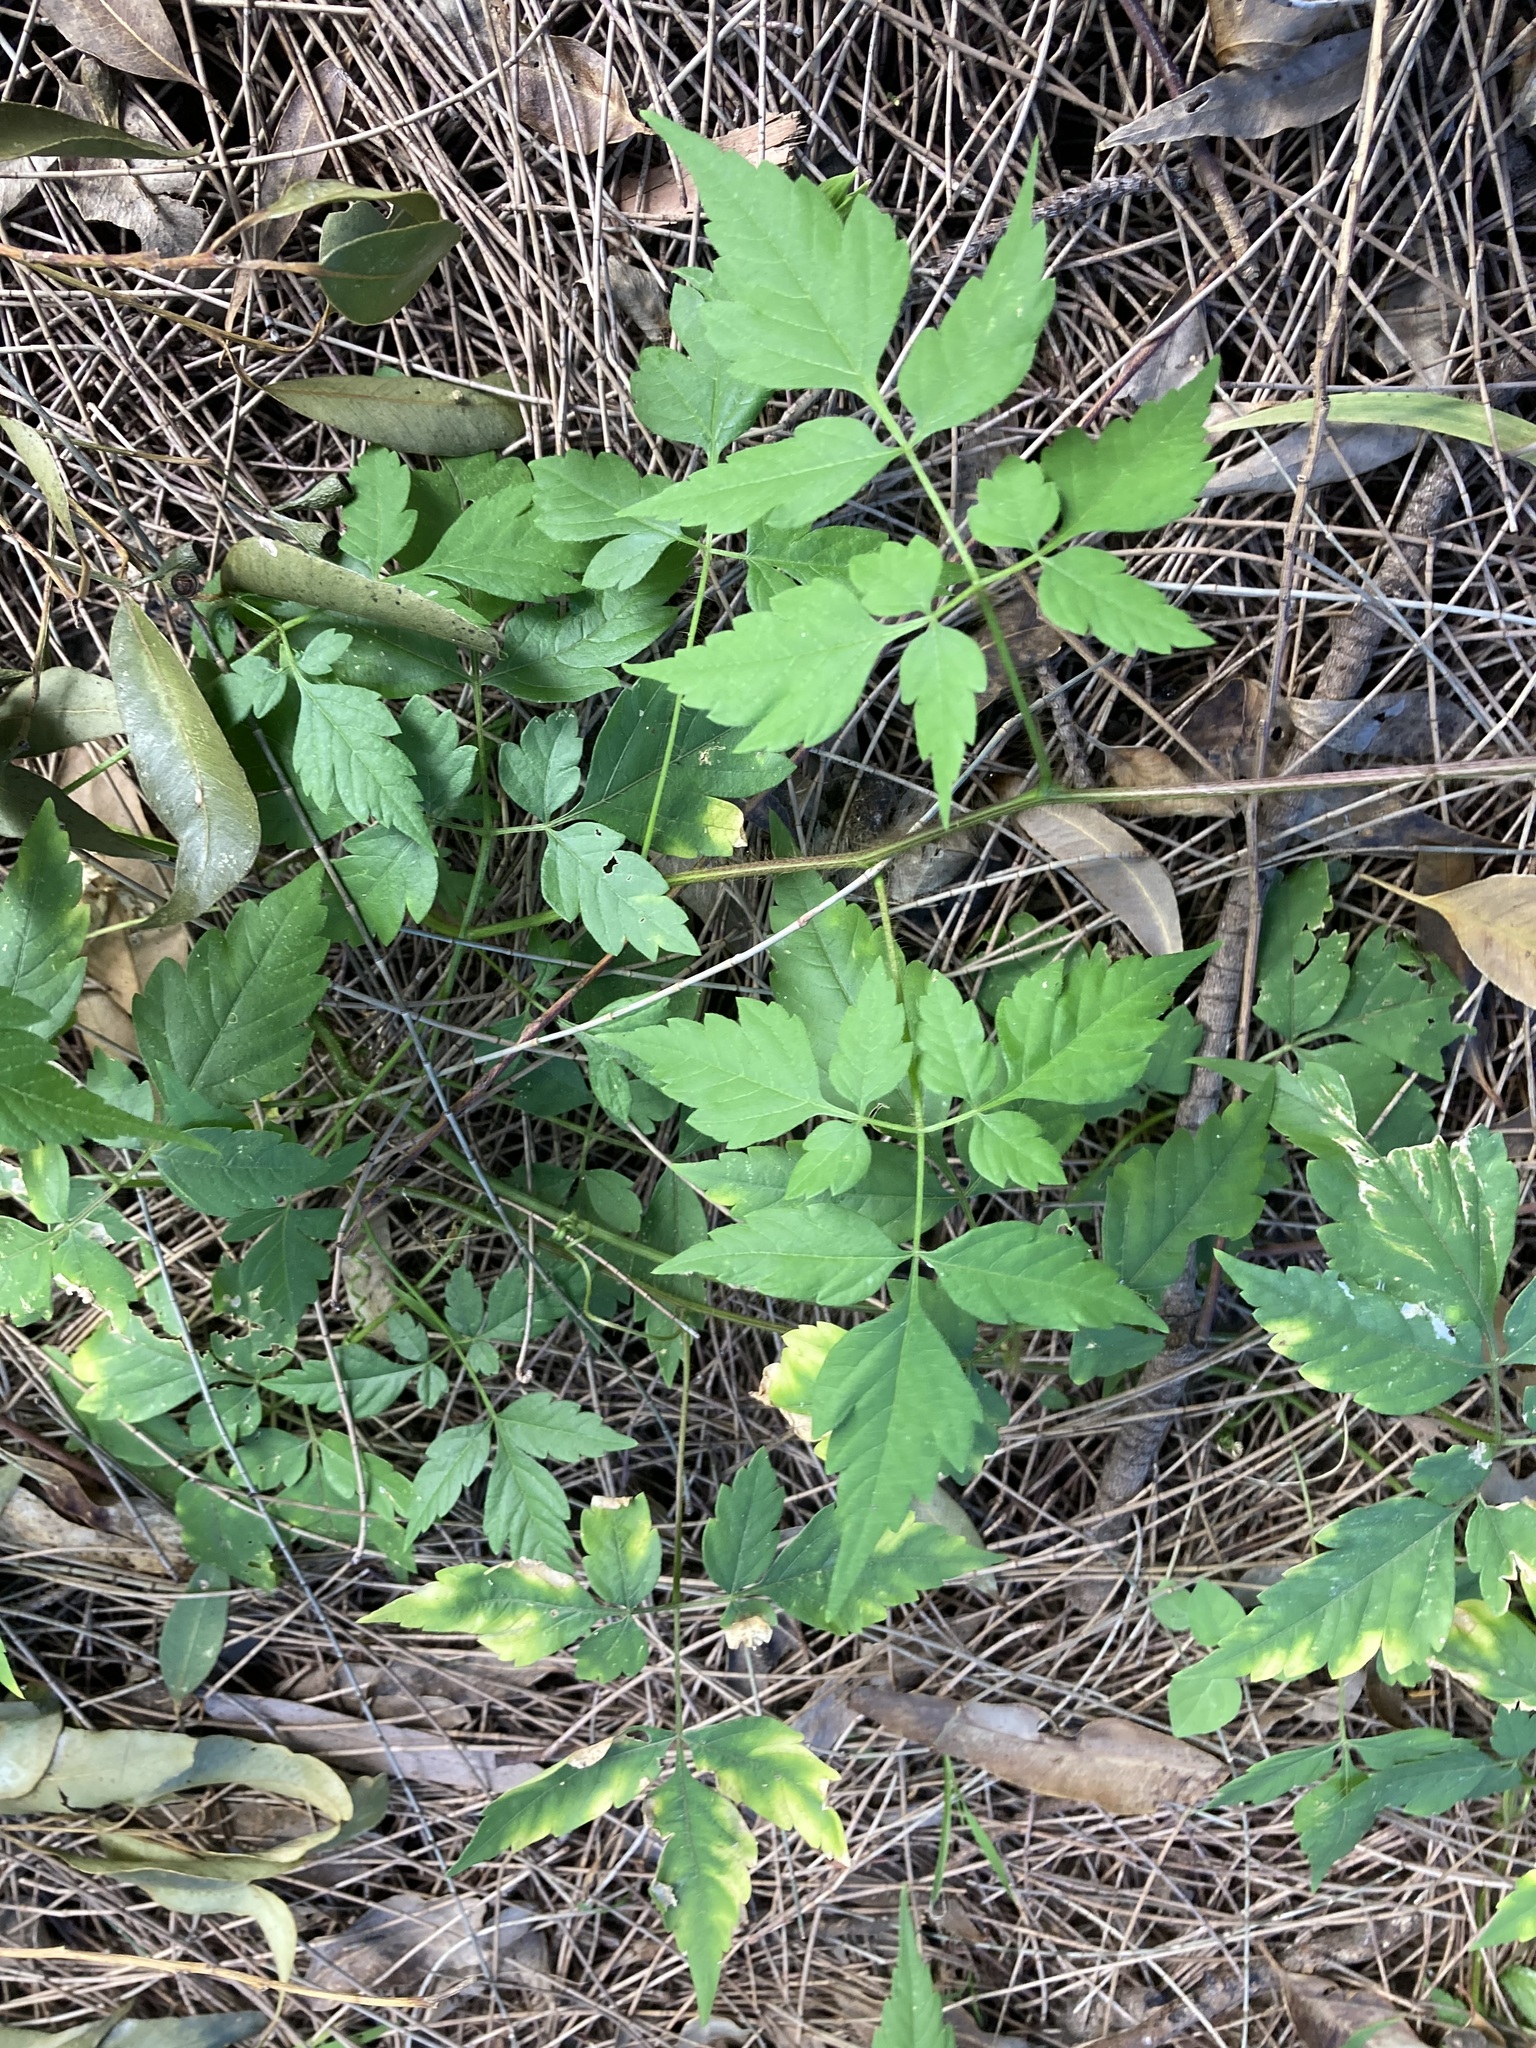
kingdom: Plantae
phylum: Tracheophyta
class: Magnoliopsida
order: Sapindales
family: Sapindaceae
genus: Cardiospermum
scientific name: Cardiospermum grandiflorum
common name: Balloon vine
